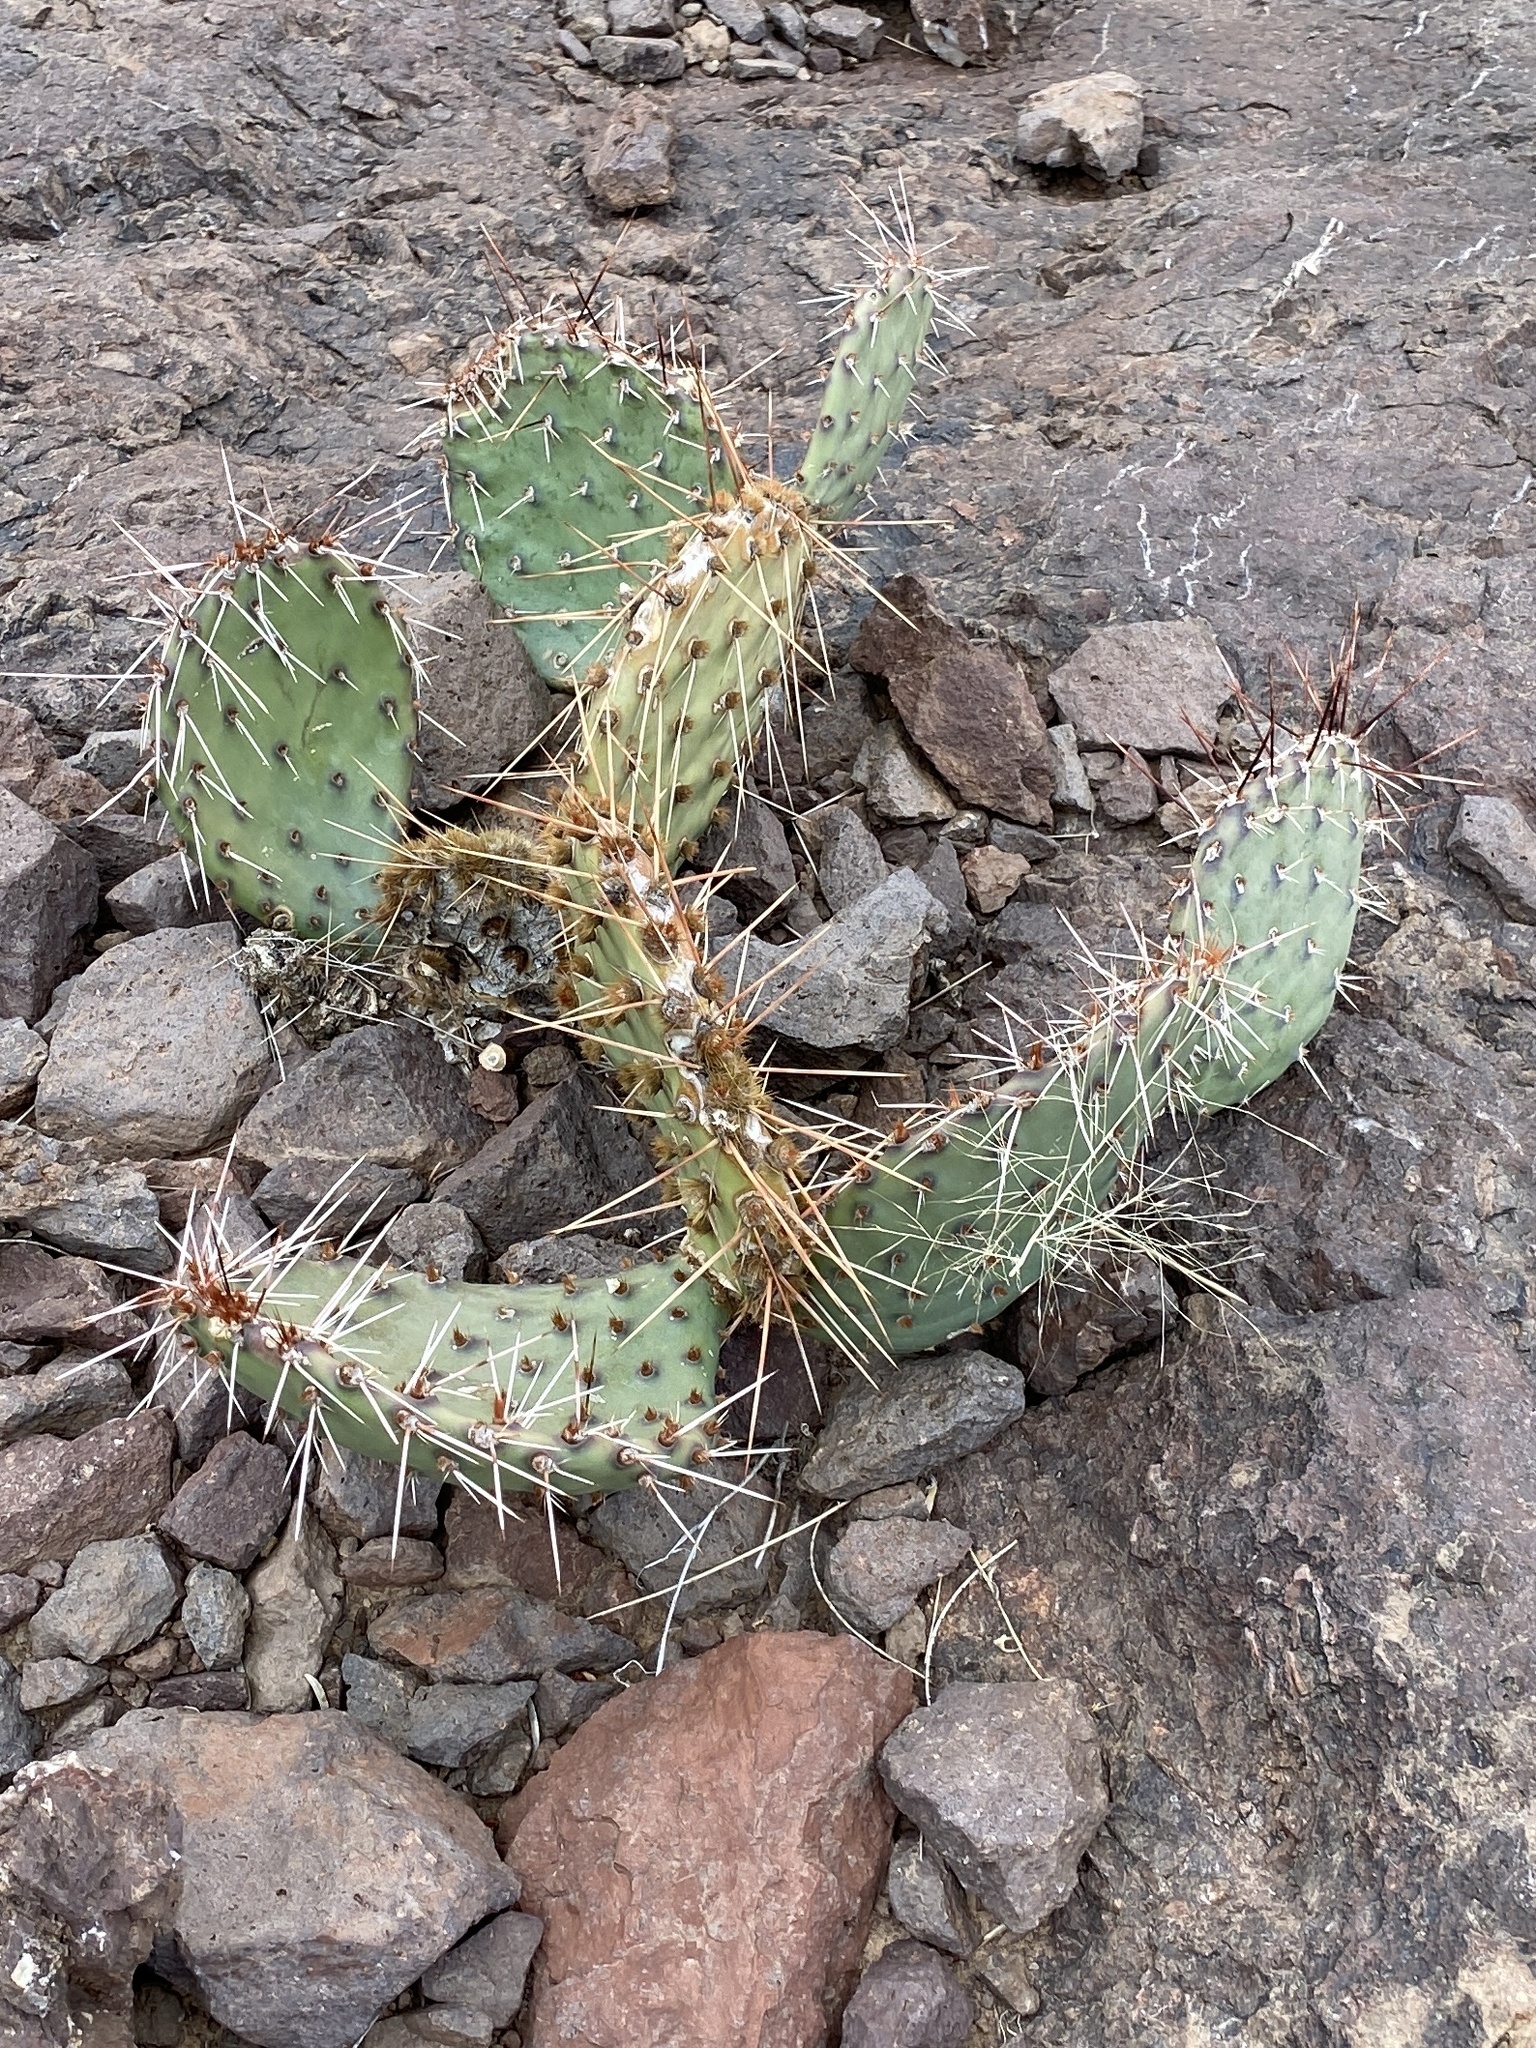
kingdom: Plantae
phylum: Tracheophyta
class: Magnoliopsida
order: Caryophyllales
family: Cactaceae
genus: Opuntia
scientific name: Opuntia macrorhiza
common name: Grassland pricklypear
